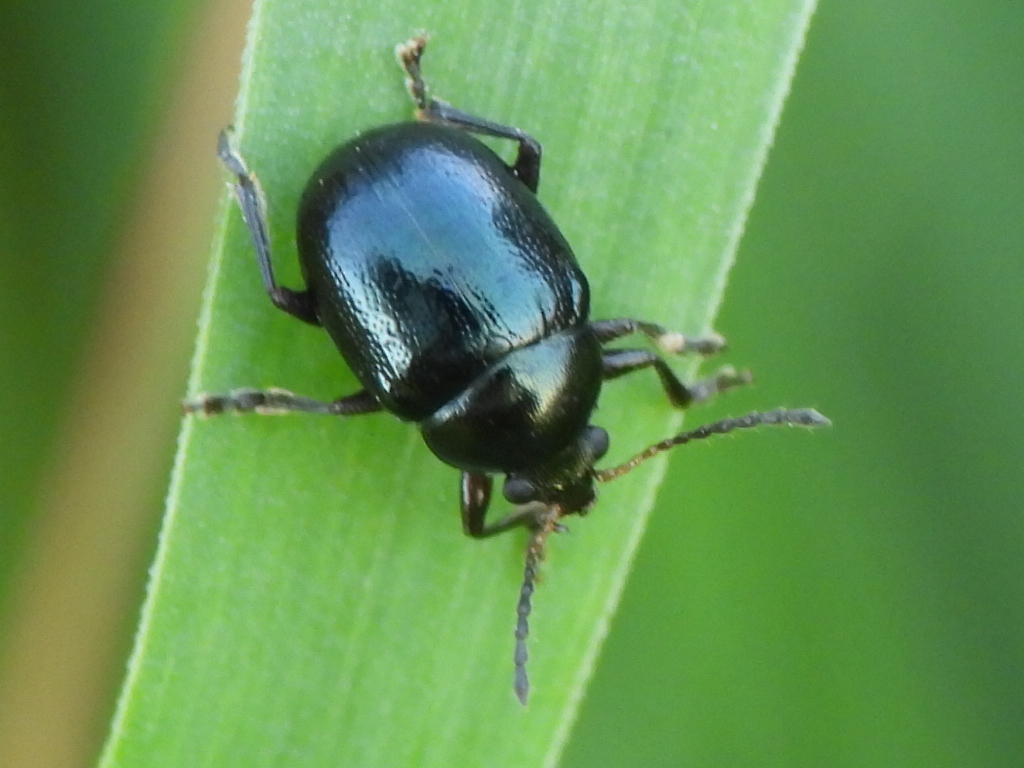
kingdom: Animalia
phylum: Arthropoda
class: Insecta
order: Coleoptera
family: Chrysomelidae
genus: Brachypnoea
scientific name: Brachypnoea tristis
